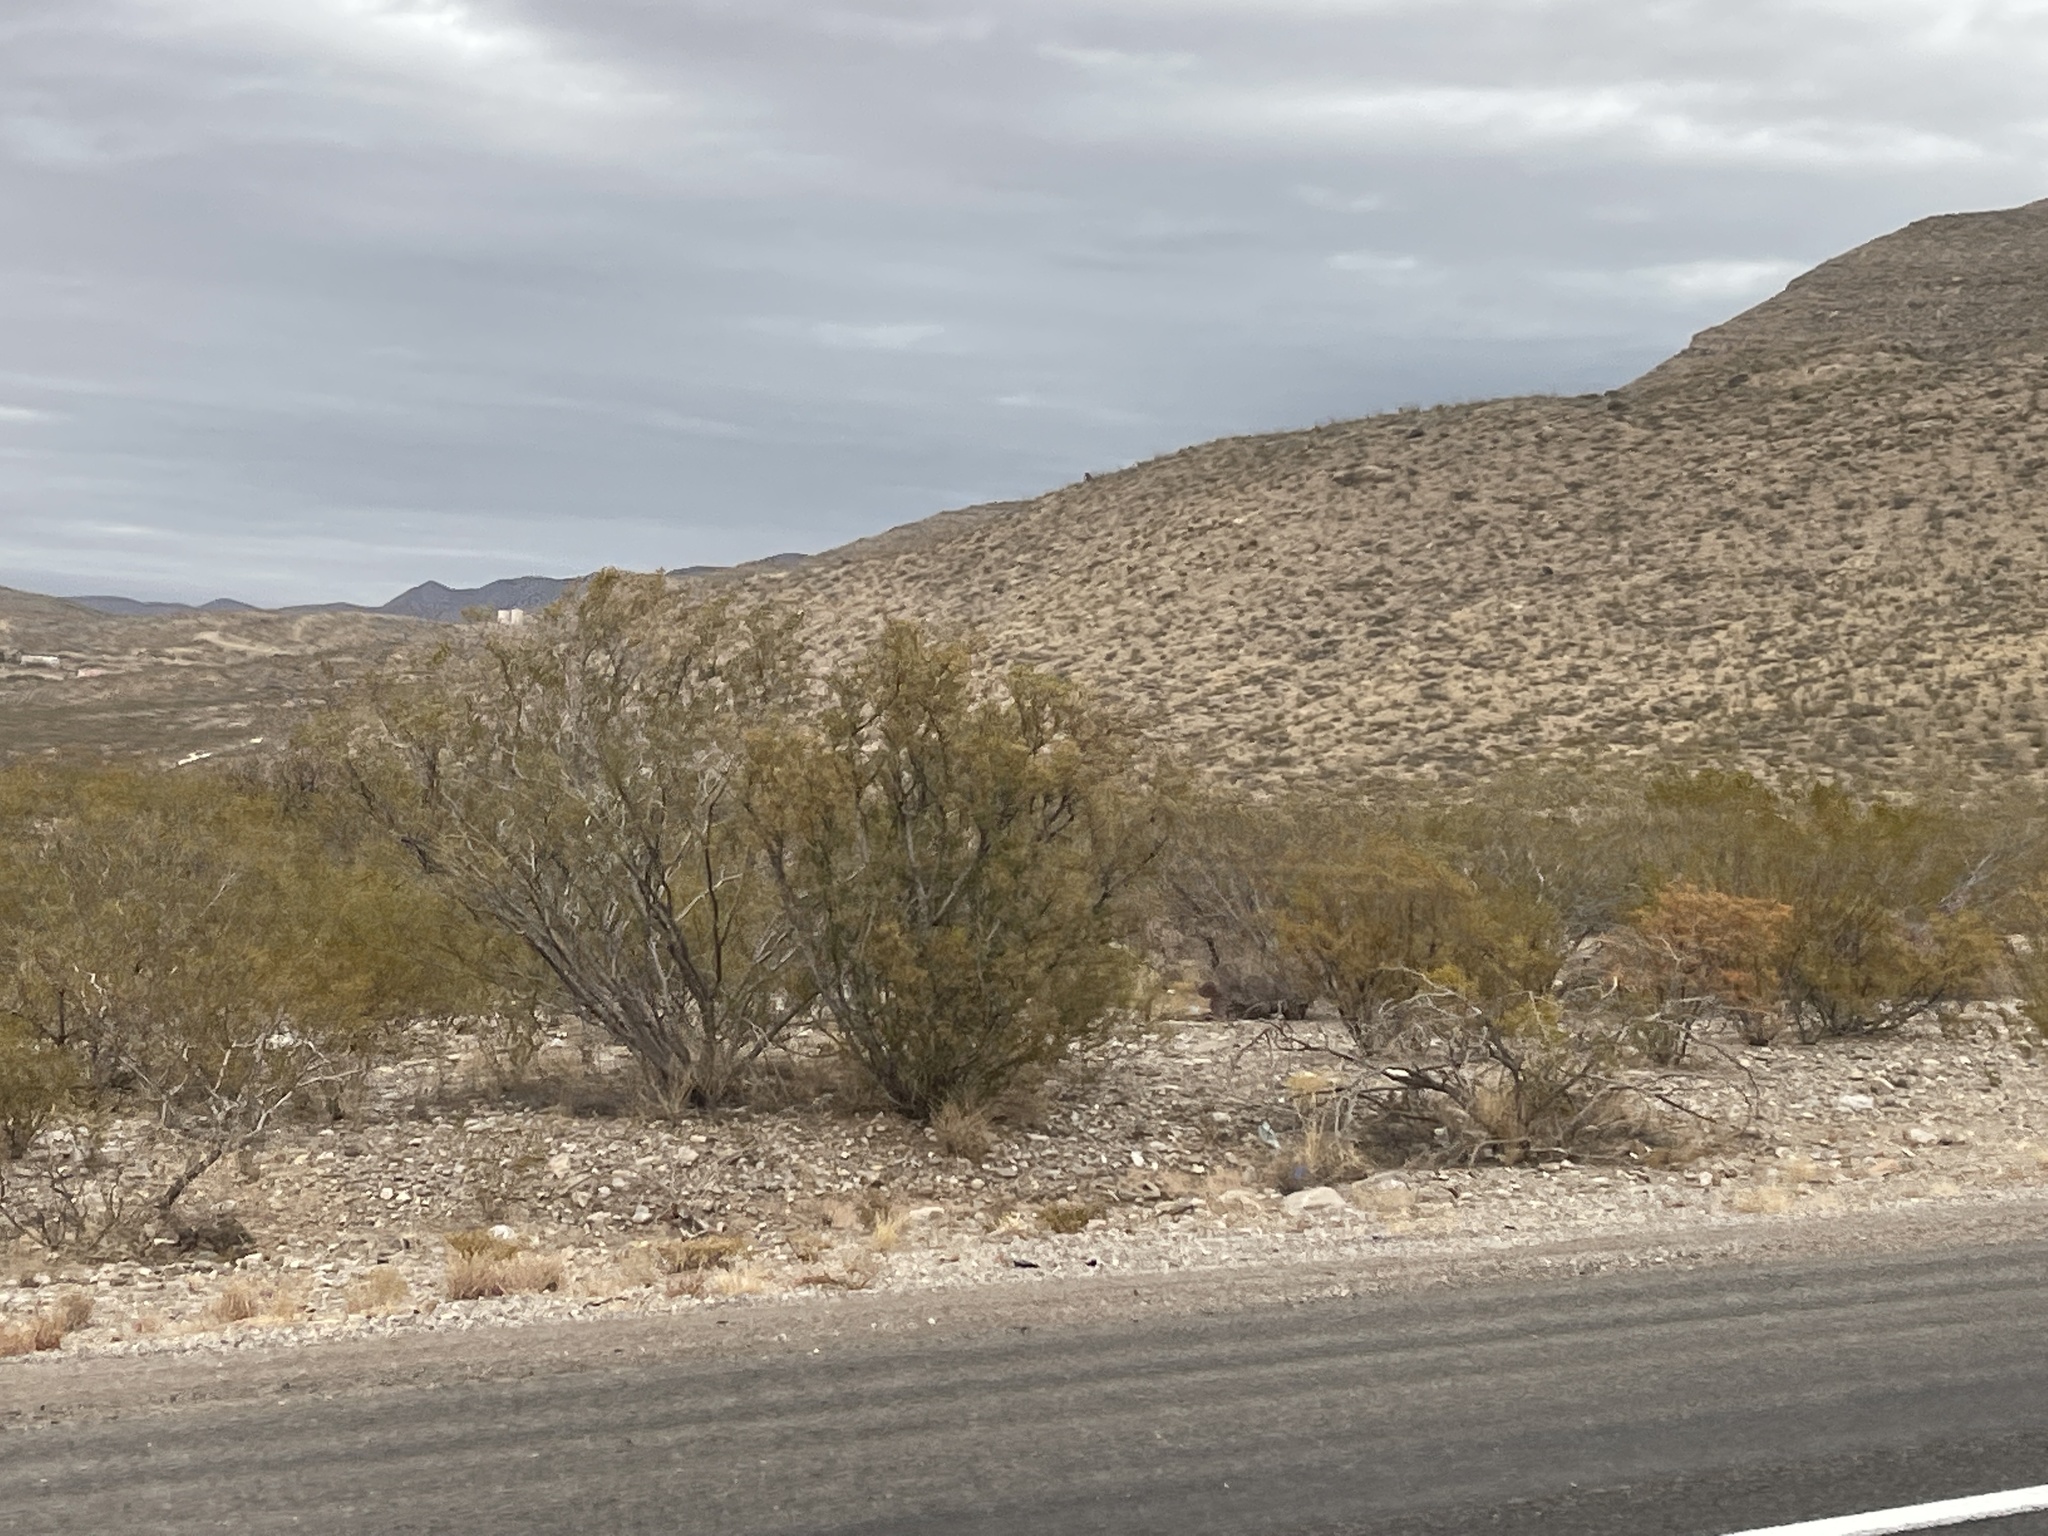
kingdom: Plantae
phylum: Tracheophyta
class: Magnoliopsida
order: Zygophyllales
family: Zygophyllaceae
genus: Larrea
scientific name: Larrea tridentata
